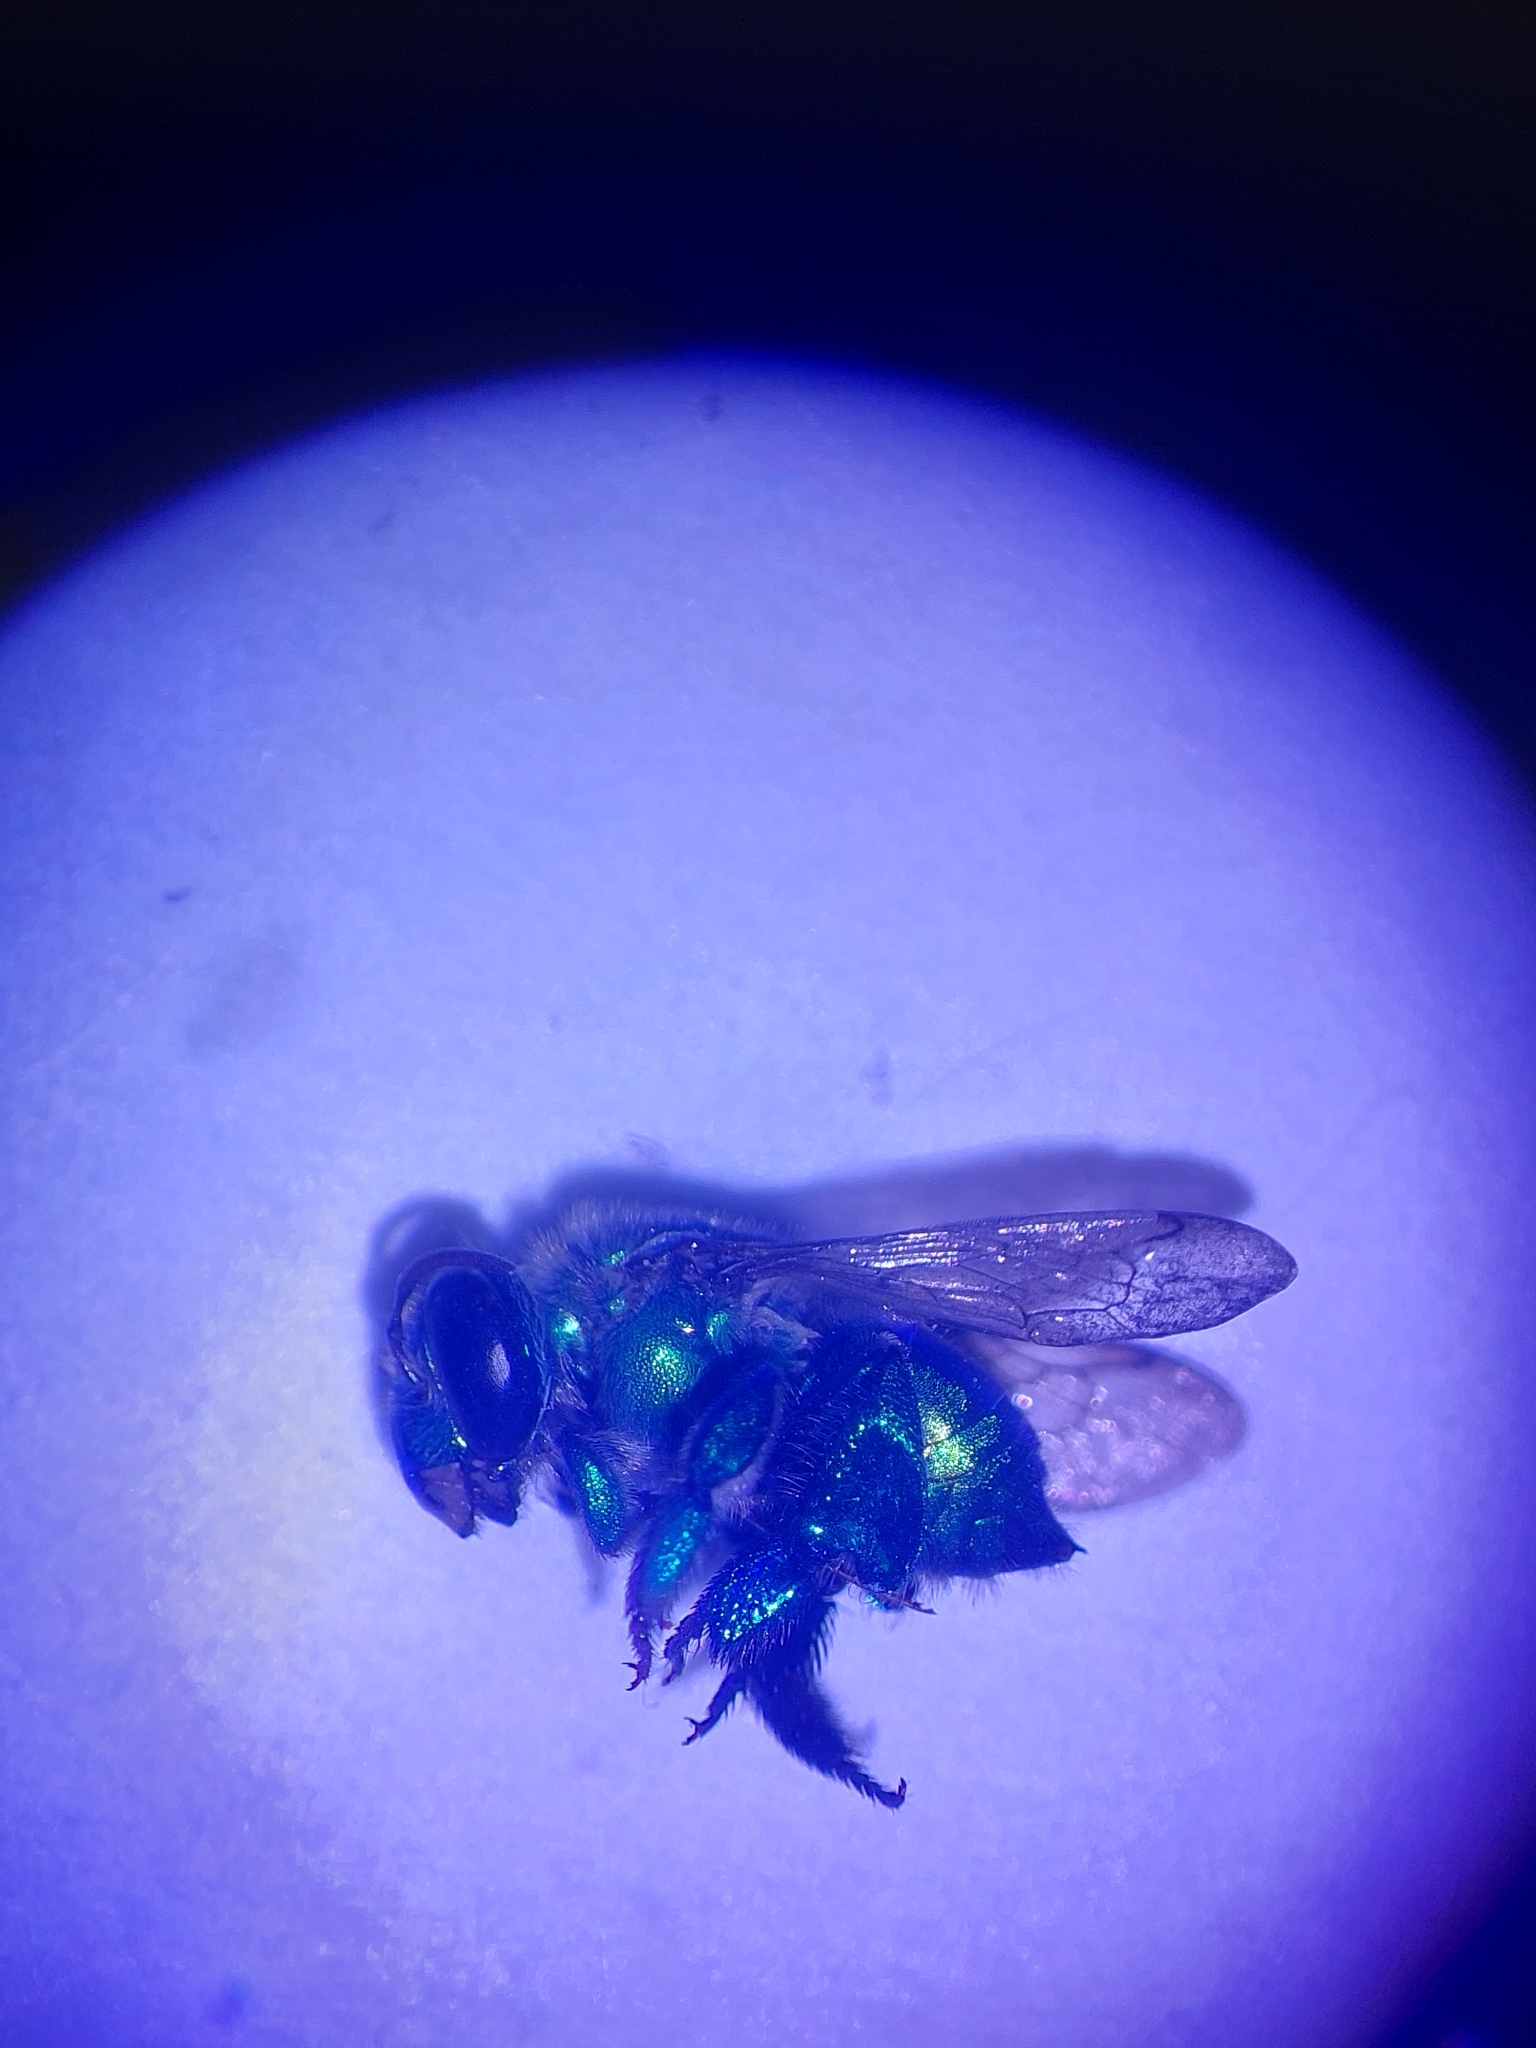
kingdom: Animalia
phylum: Arthropoda
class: Insecta
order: Hymenoptera
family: Apidae
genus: Euglossa
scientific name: Euglossa dilemma
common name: Green orchid bee
